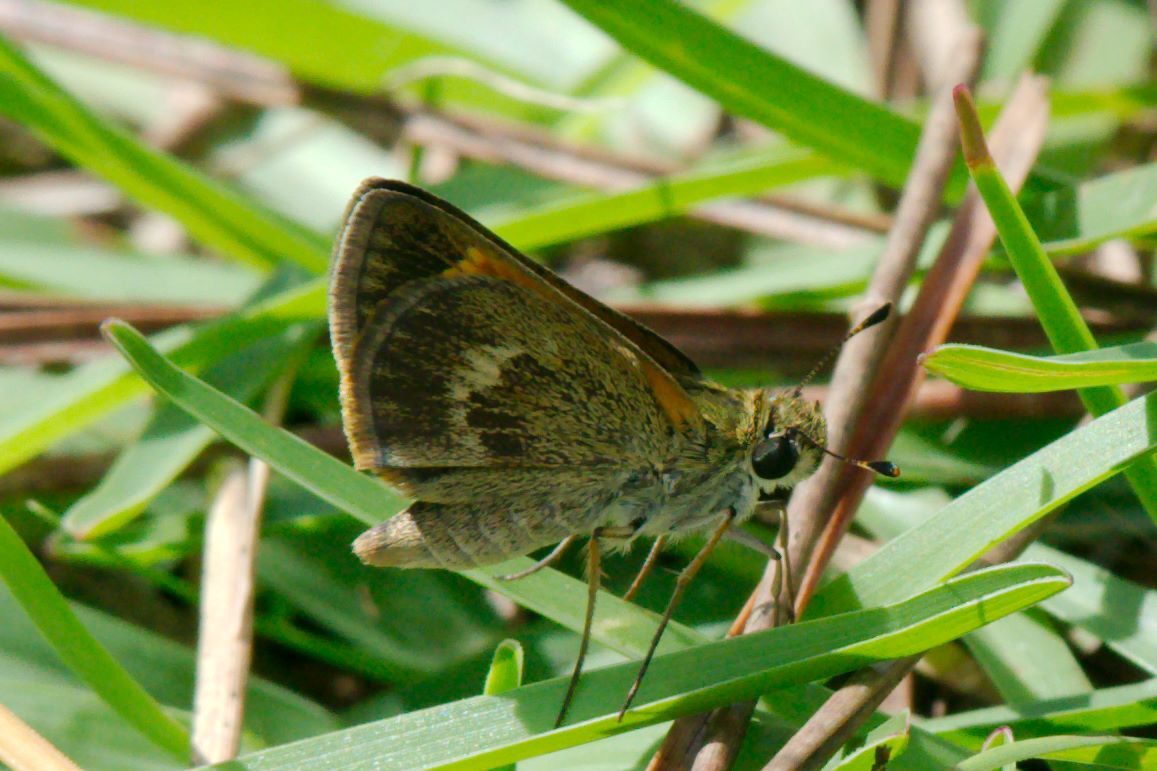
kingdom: Animalia
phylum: Arthropoda
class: Insecta
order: Lepidoptera
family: Hesperiidae
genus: Polites
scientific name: Polites baracoa
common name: Baracoa skipper
